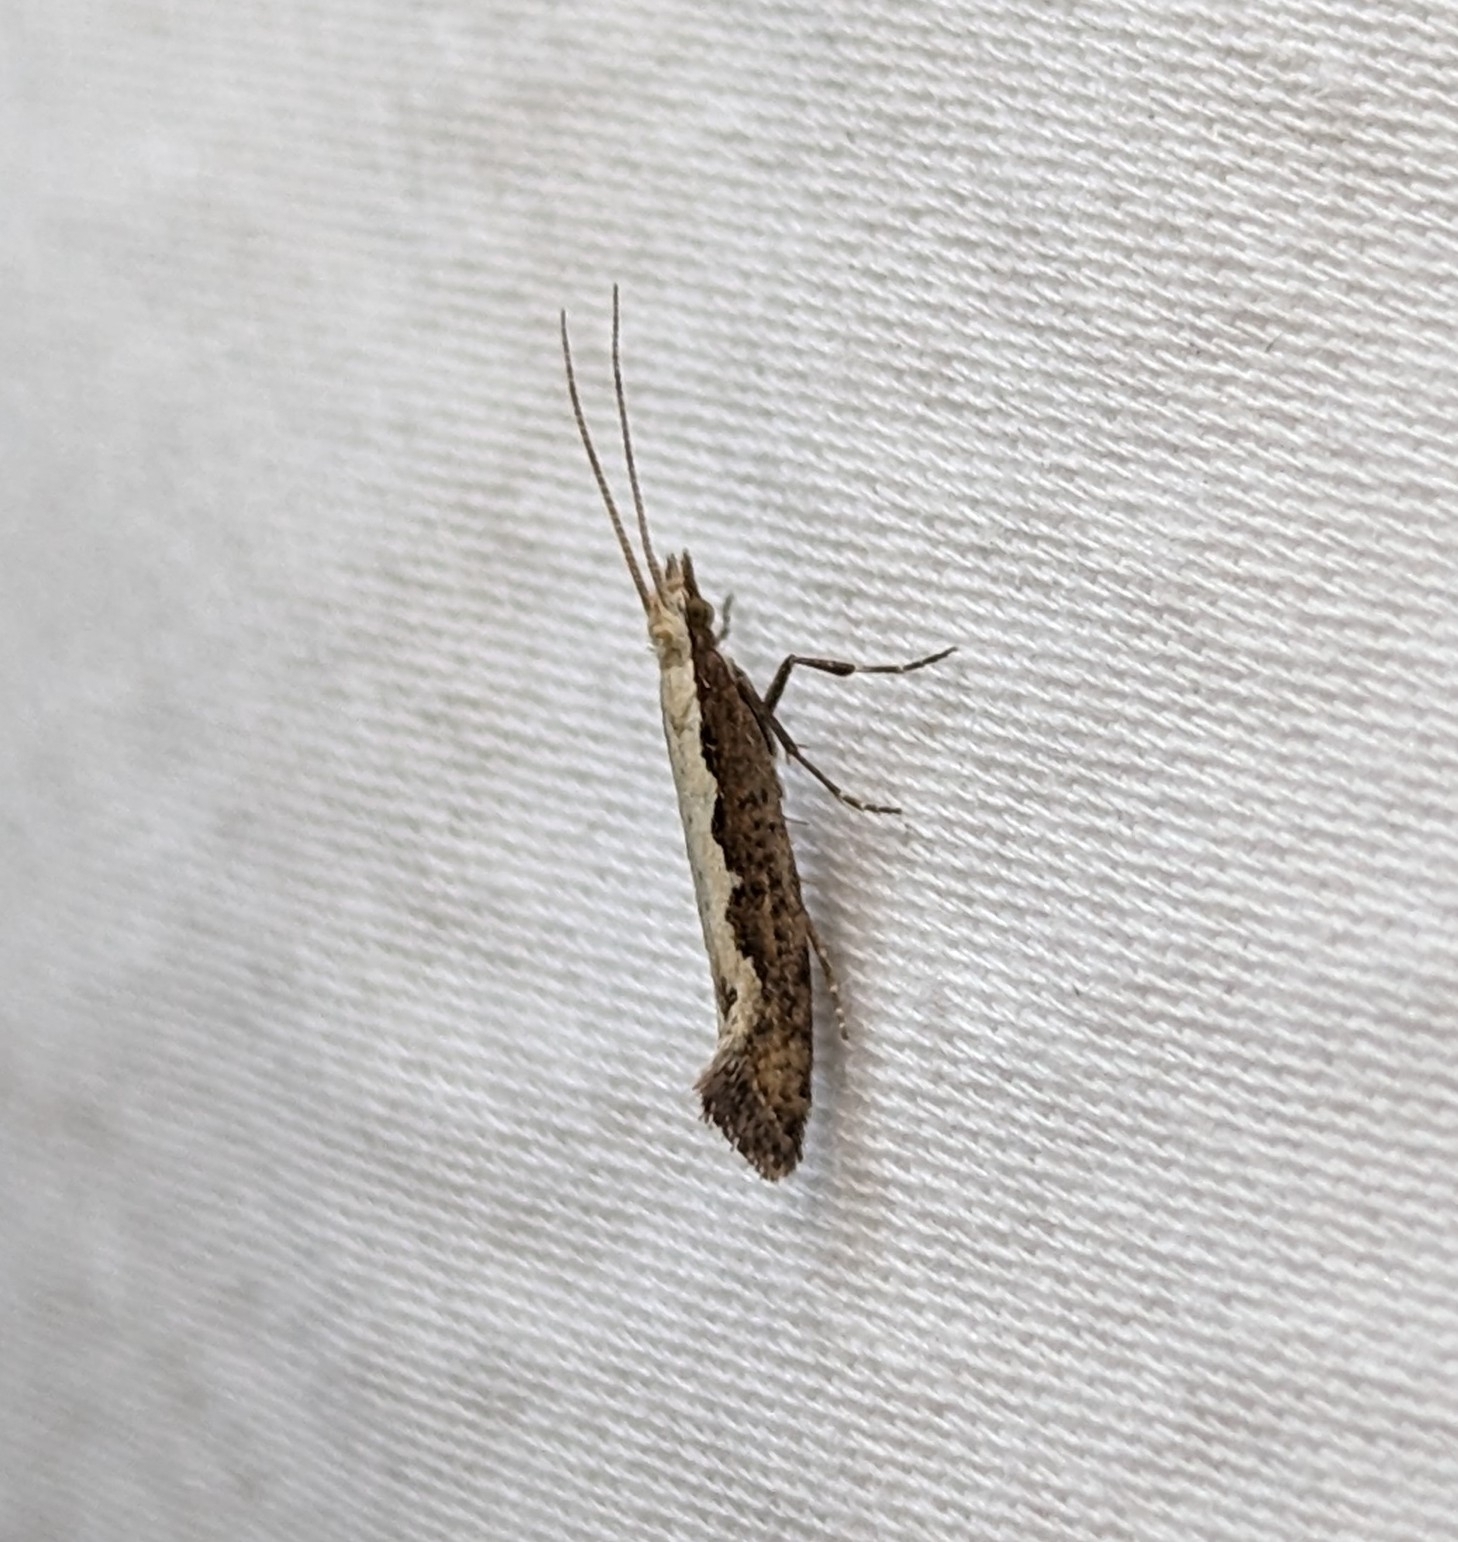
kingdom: Animalia
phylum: Arthropoda
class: Insecta
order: Lepidoptera
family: Plutellidae
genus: Plutella
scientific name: Plutella xylostella
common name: Diamond-back moth
